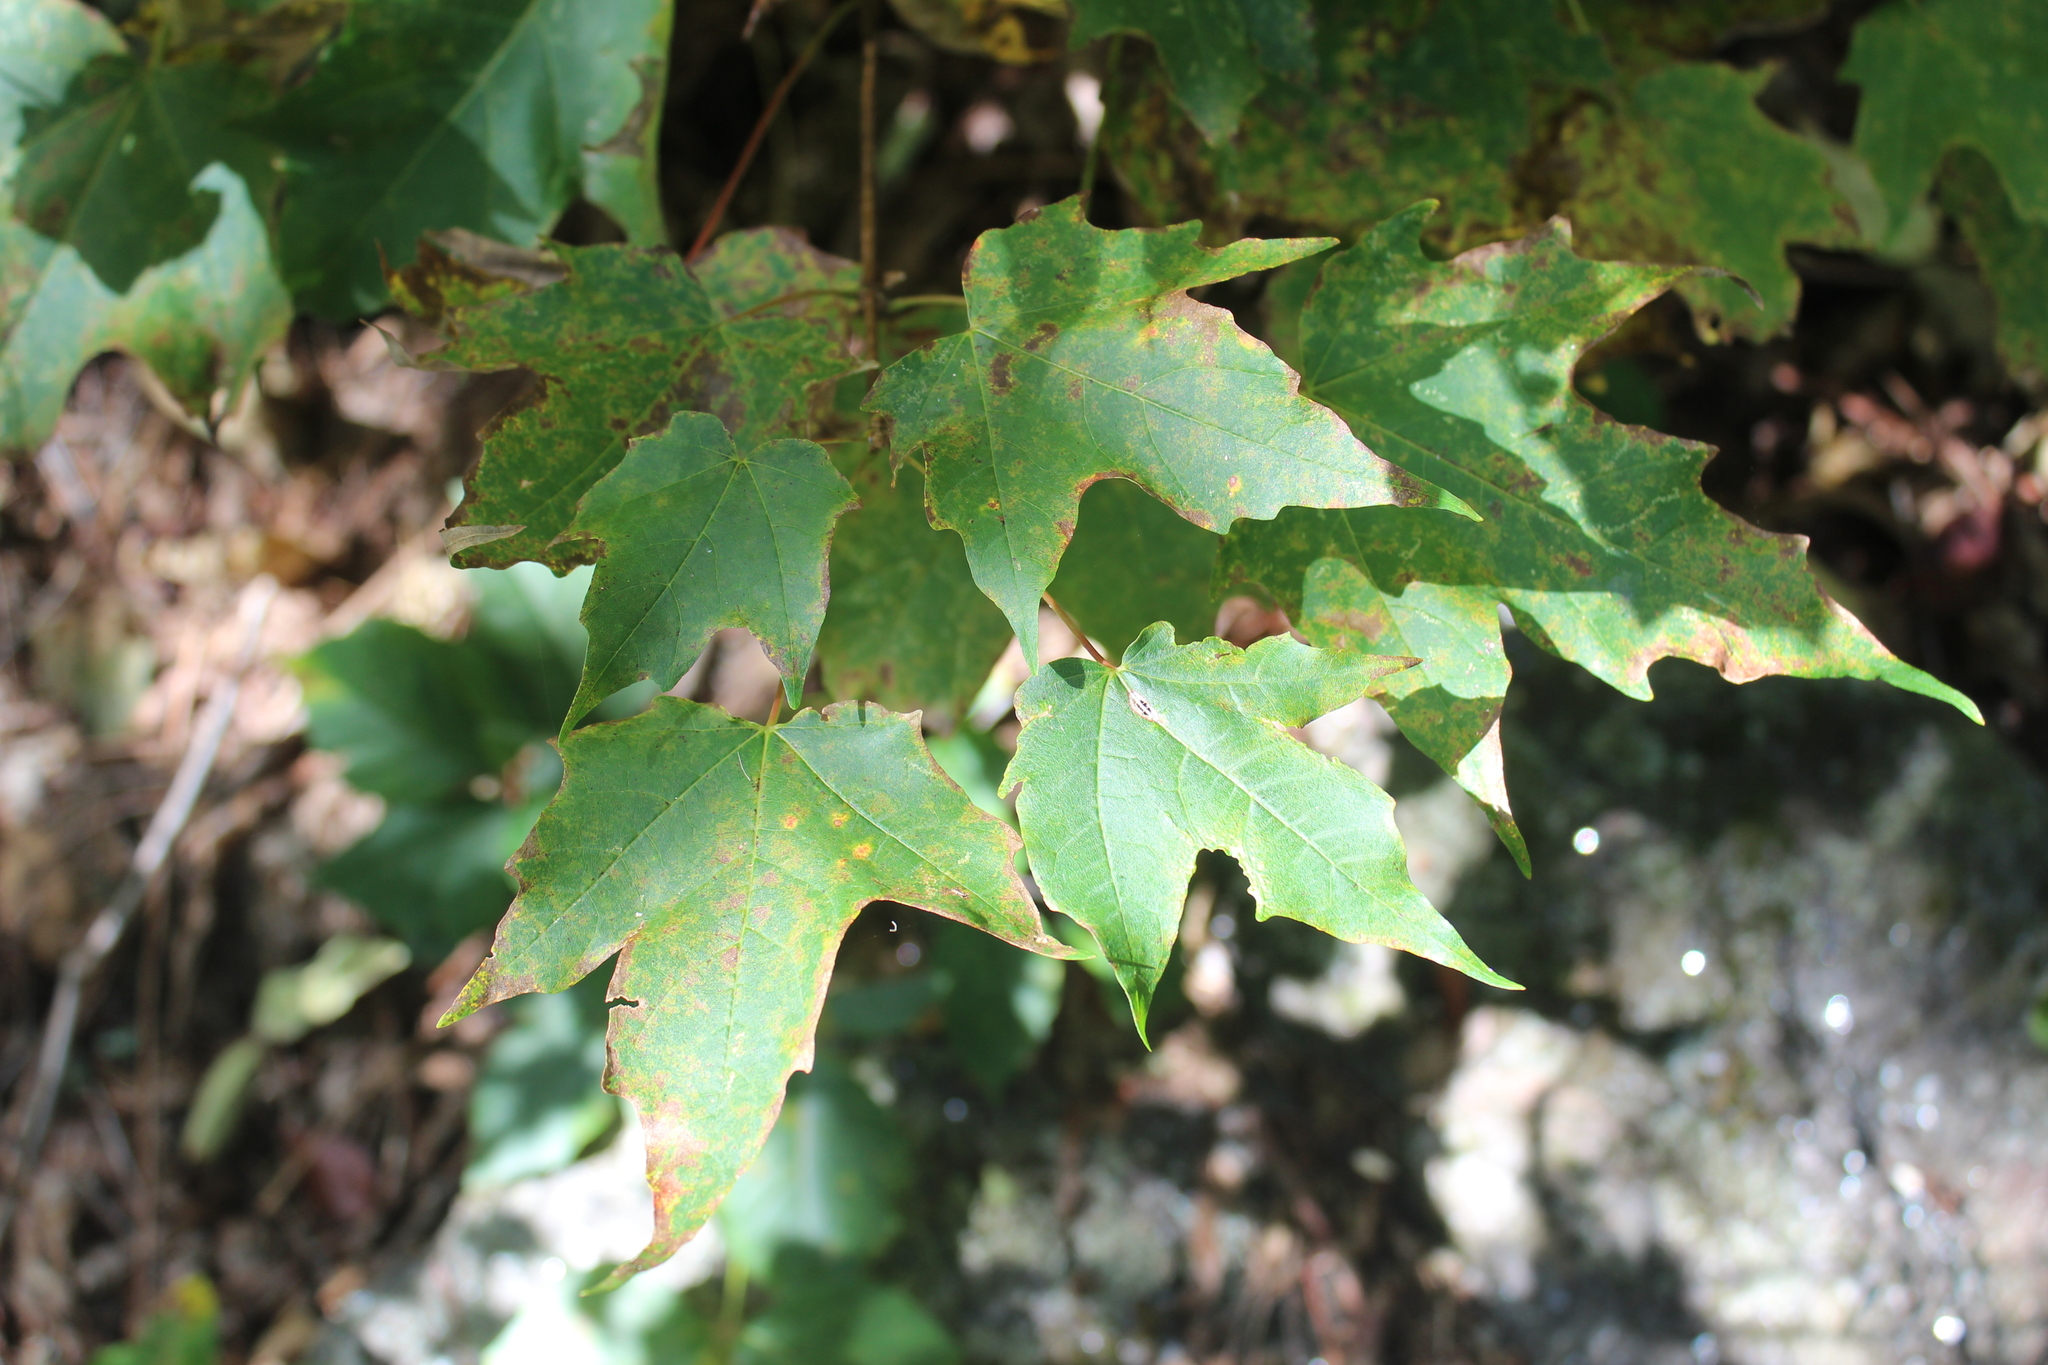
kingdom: Plantae
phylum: Tracheophyta
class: Magnoliopsida
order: Sapindales
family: Sapindaceae
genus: Acer
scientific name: Acer saccharum
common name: Sugar maple
